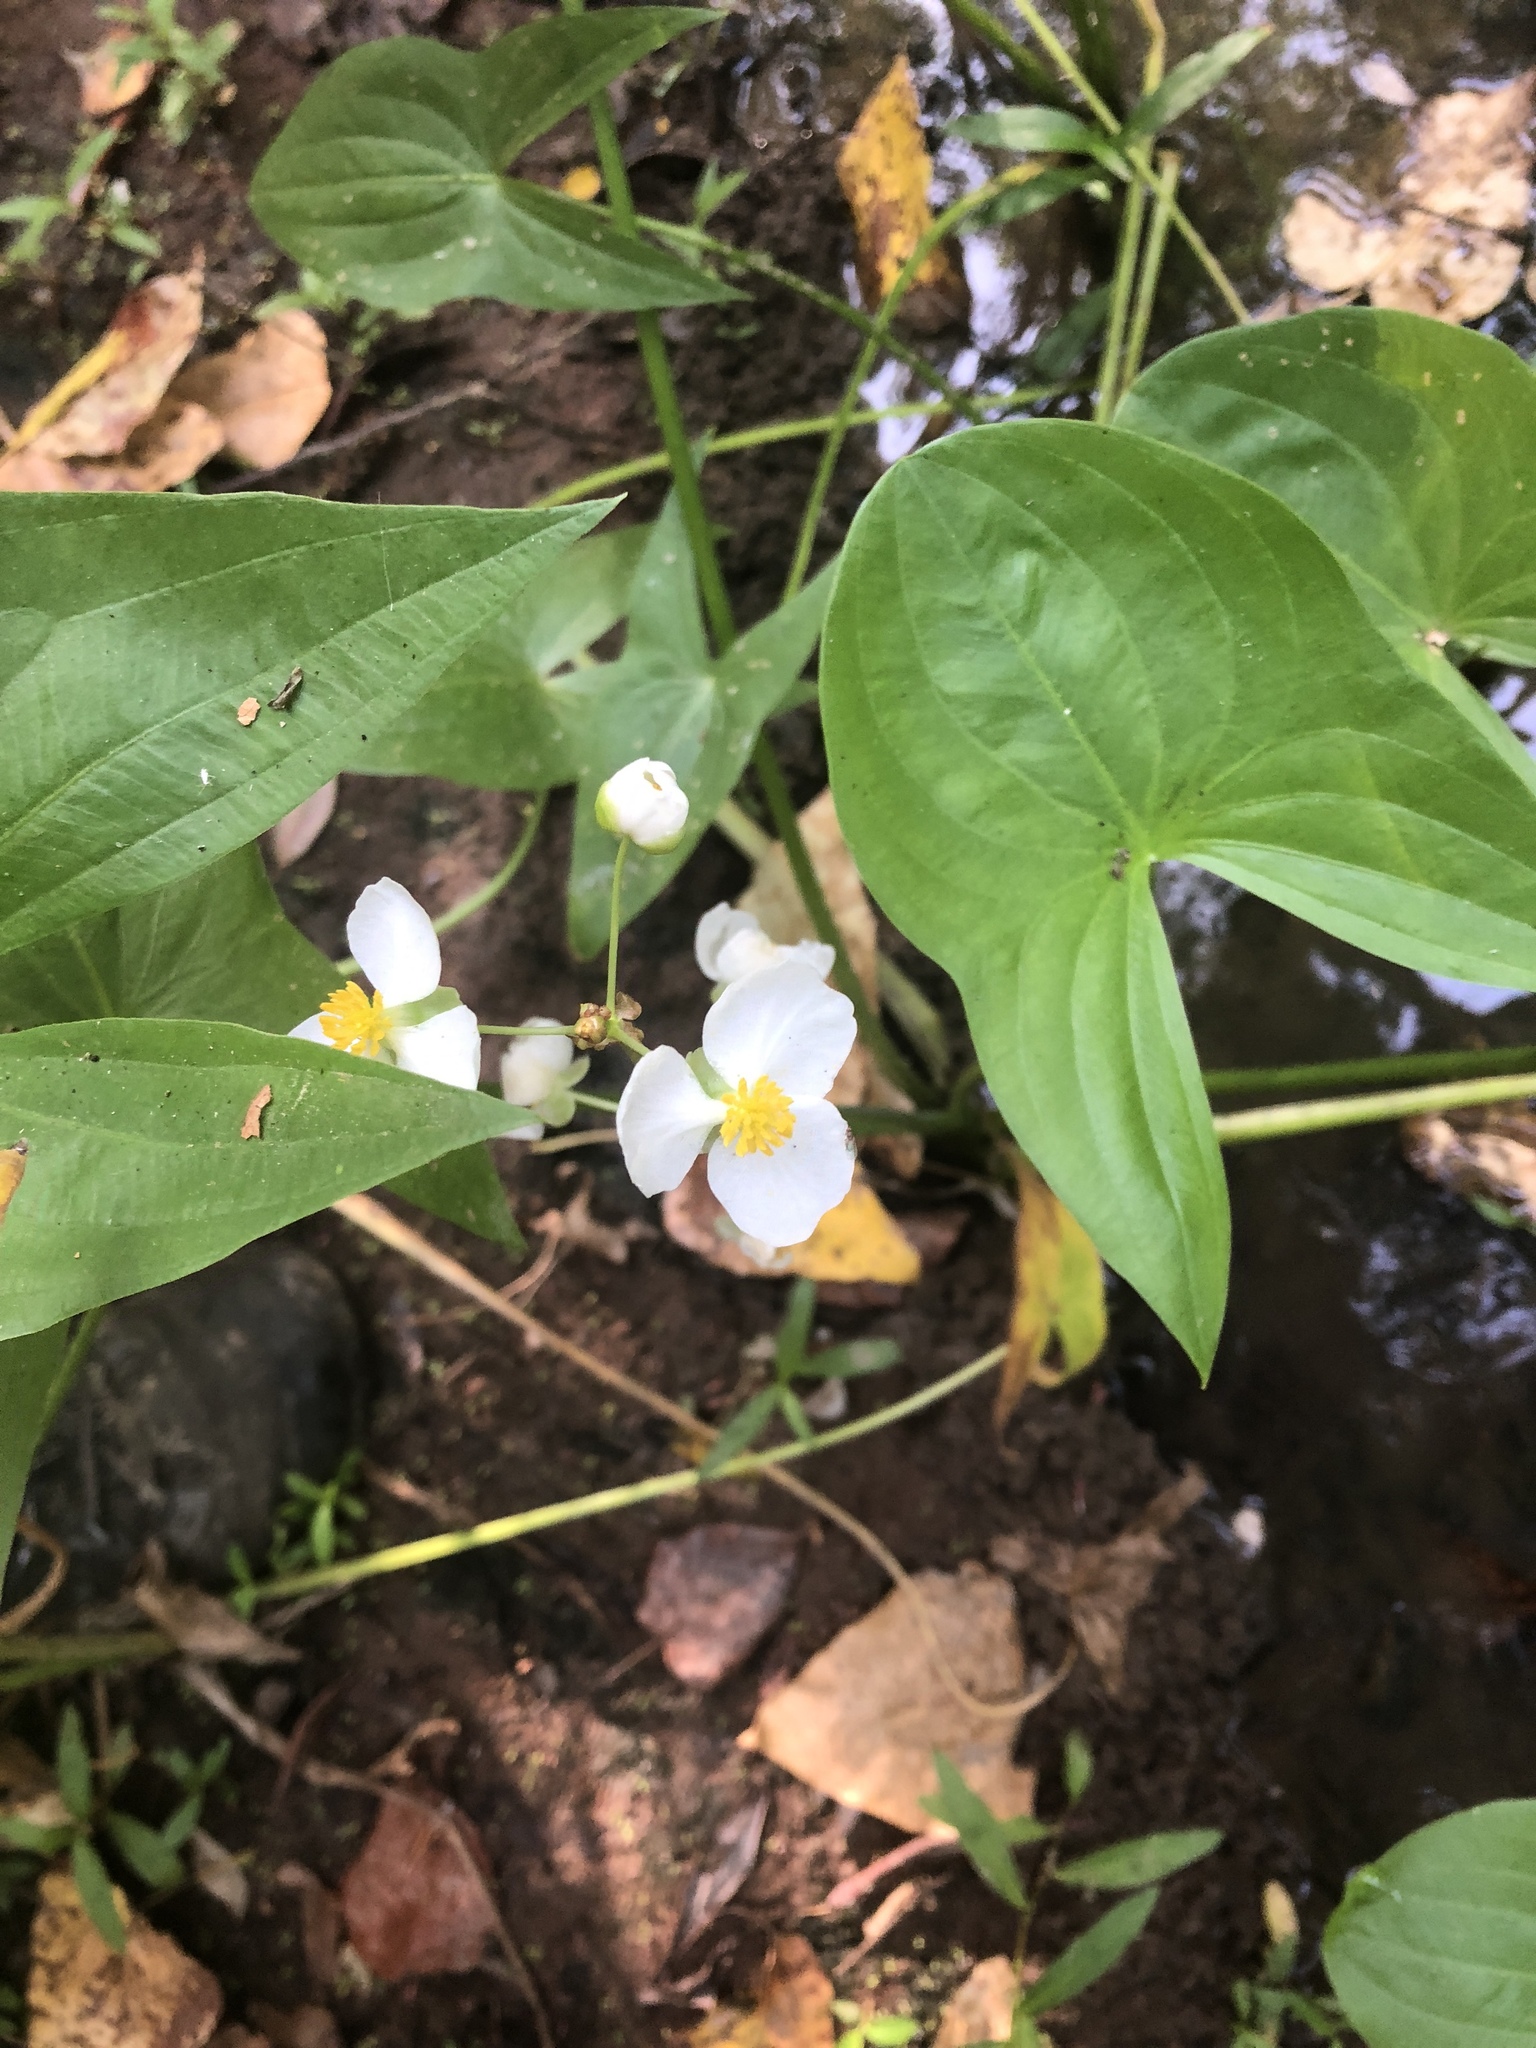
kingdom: Plantae
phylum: Tracheophyta
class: Liliopsida
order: Alismatales
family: Alismataceae
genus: Sagittaria
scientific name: Sagittaria latifolia
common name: Duck-potato
